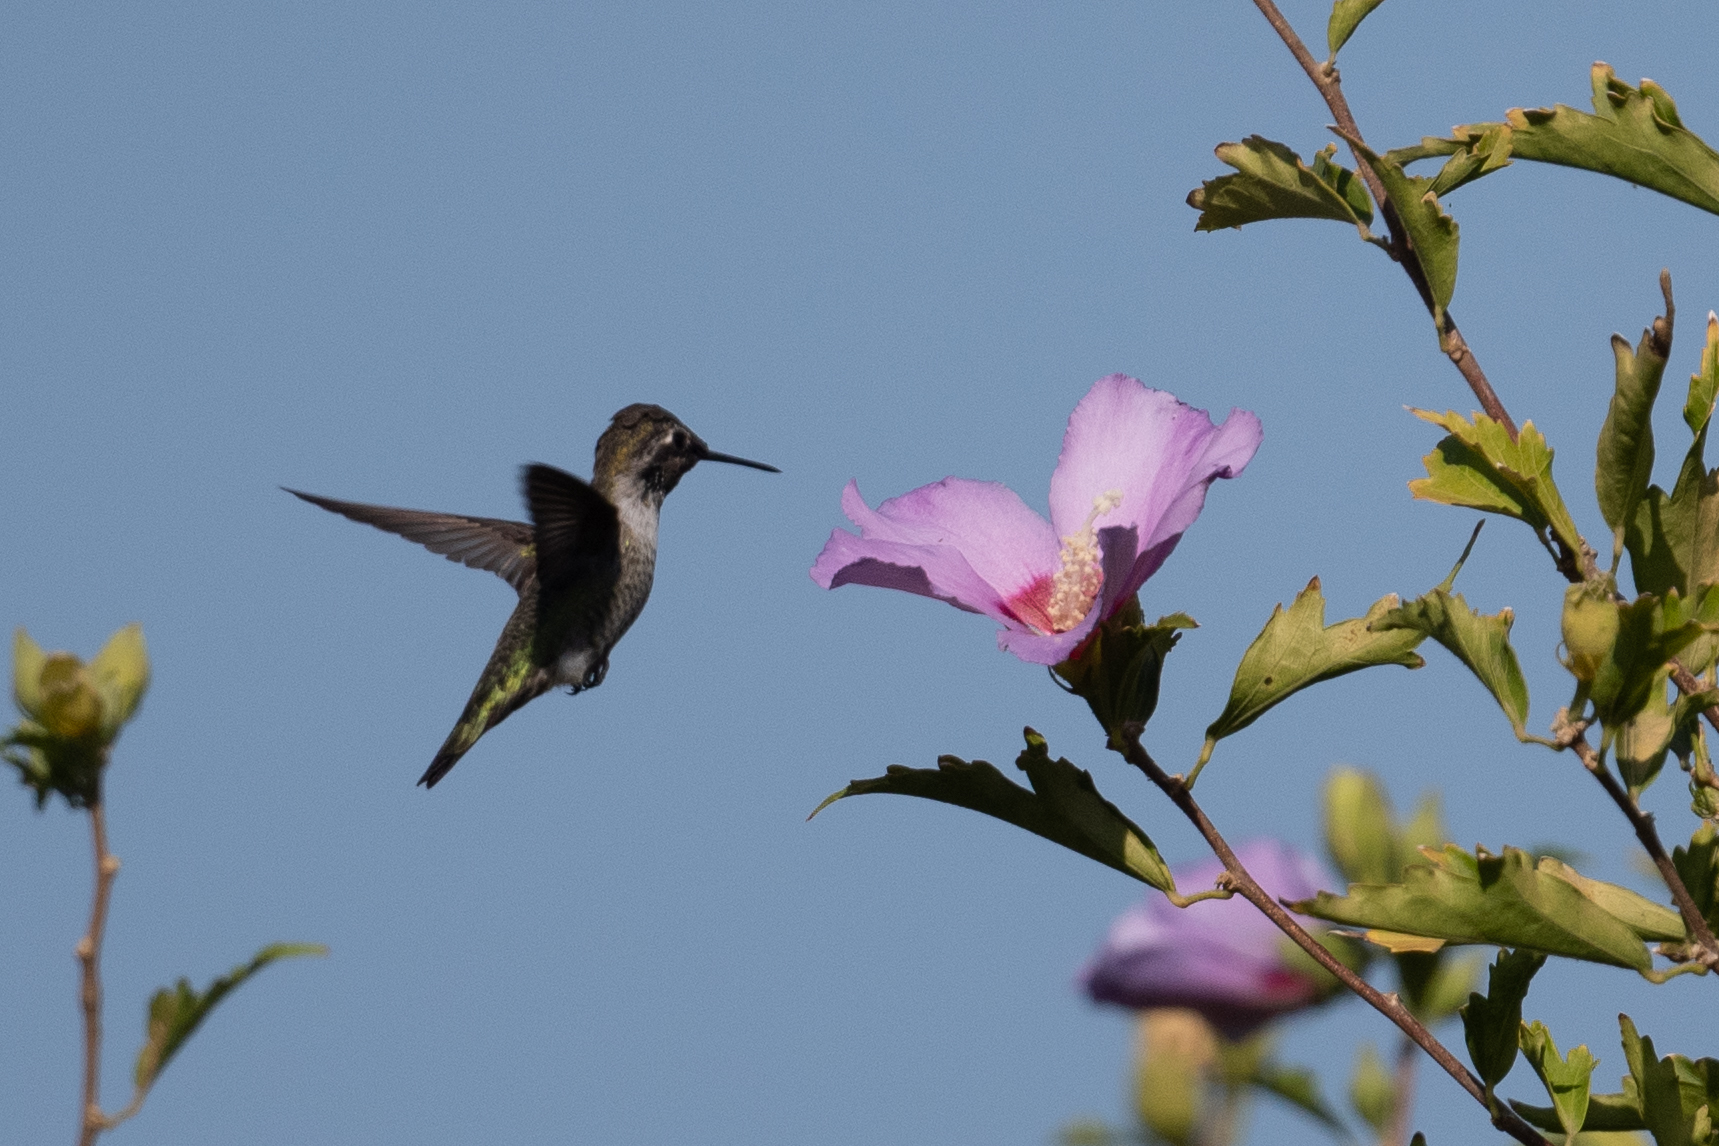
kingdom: Animalia
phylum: Chordata
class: Aves
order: Apodiformes
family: Trochilidae
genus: Calypte
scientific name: Calypte anna
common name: Anna's hummingbird
